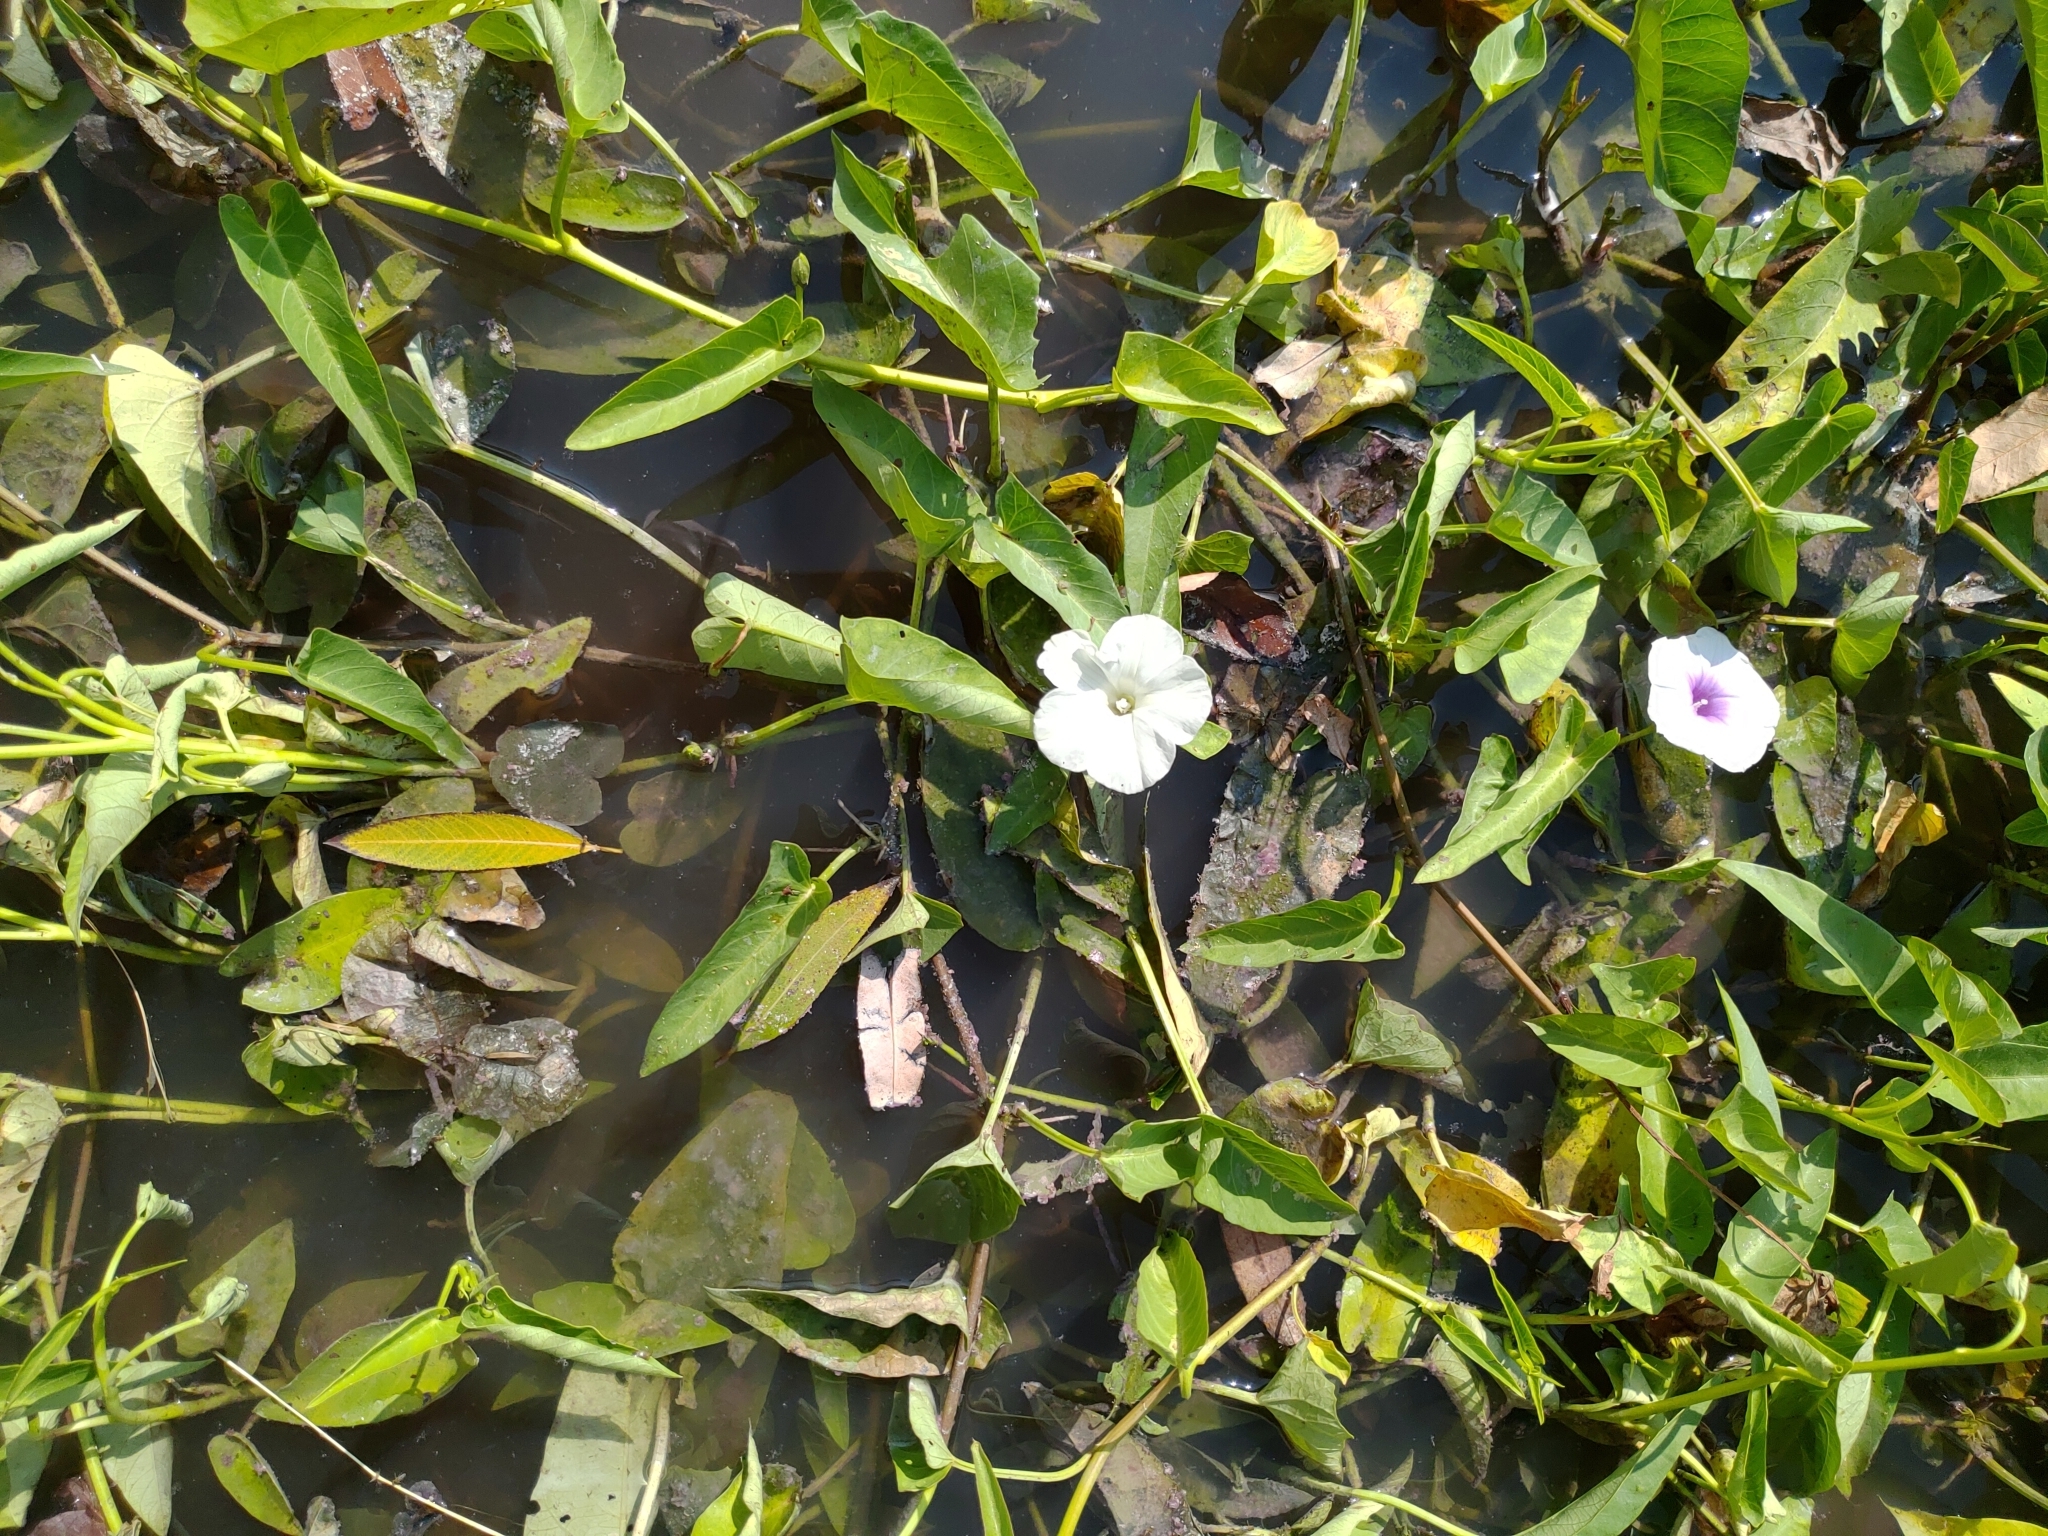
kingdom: Plantae
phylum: Tracheophyta
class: Magnoliopsida
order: Solanales
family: Convolvulaceae
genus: Ipomoea
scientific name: Ipomoea aquatica
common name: Swamp morning-glory
